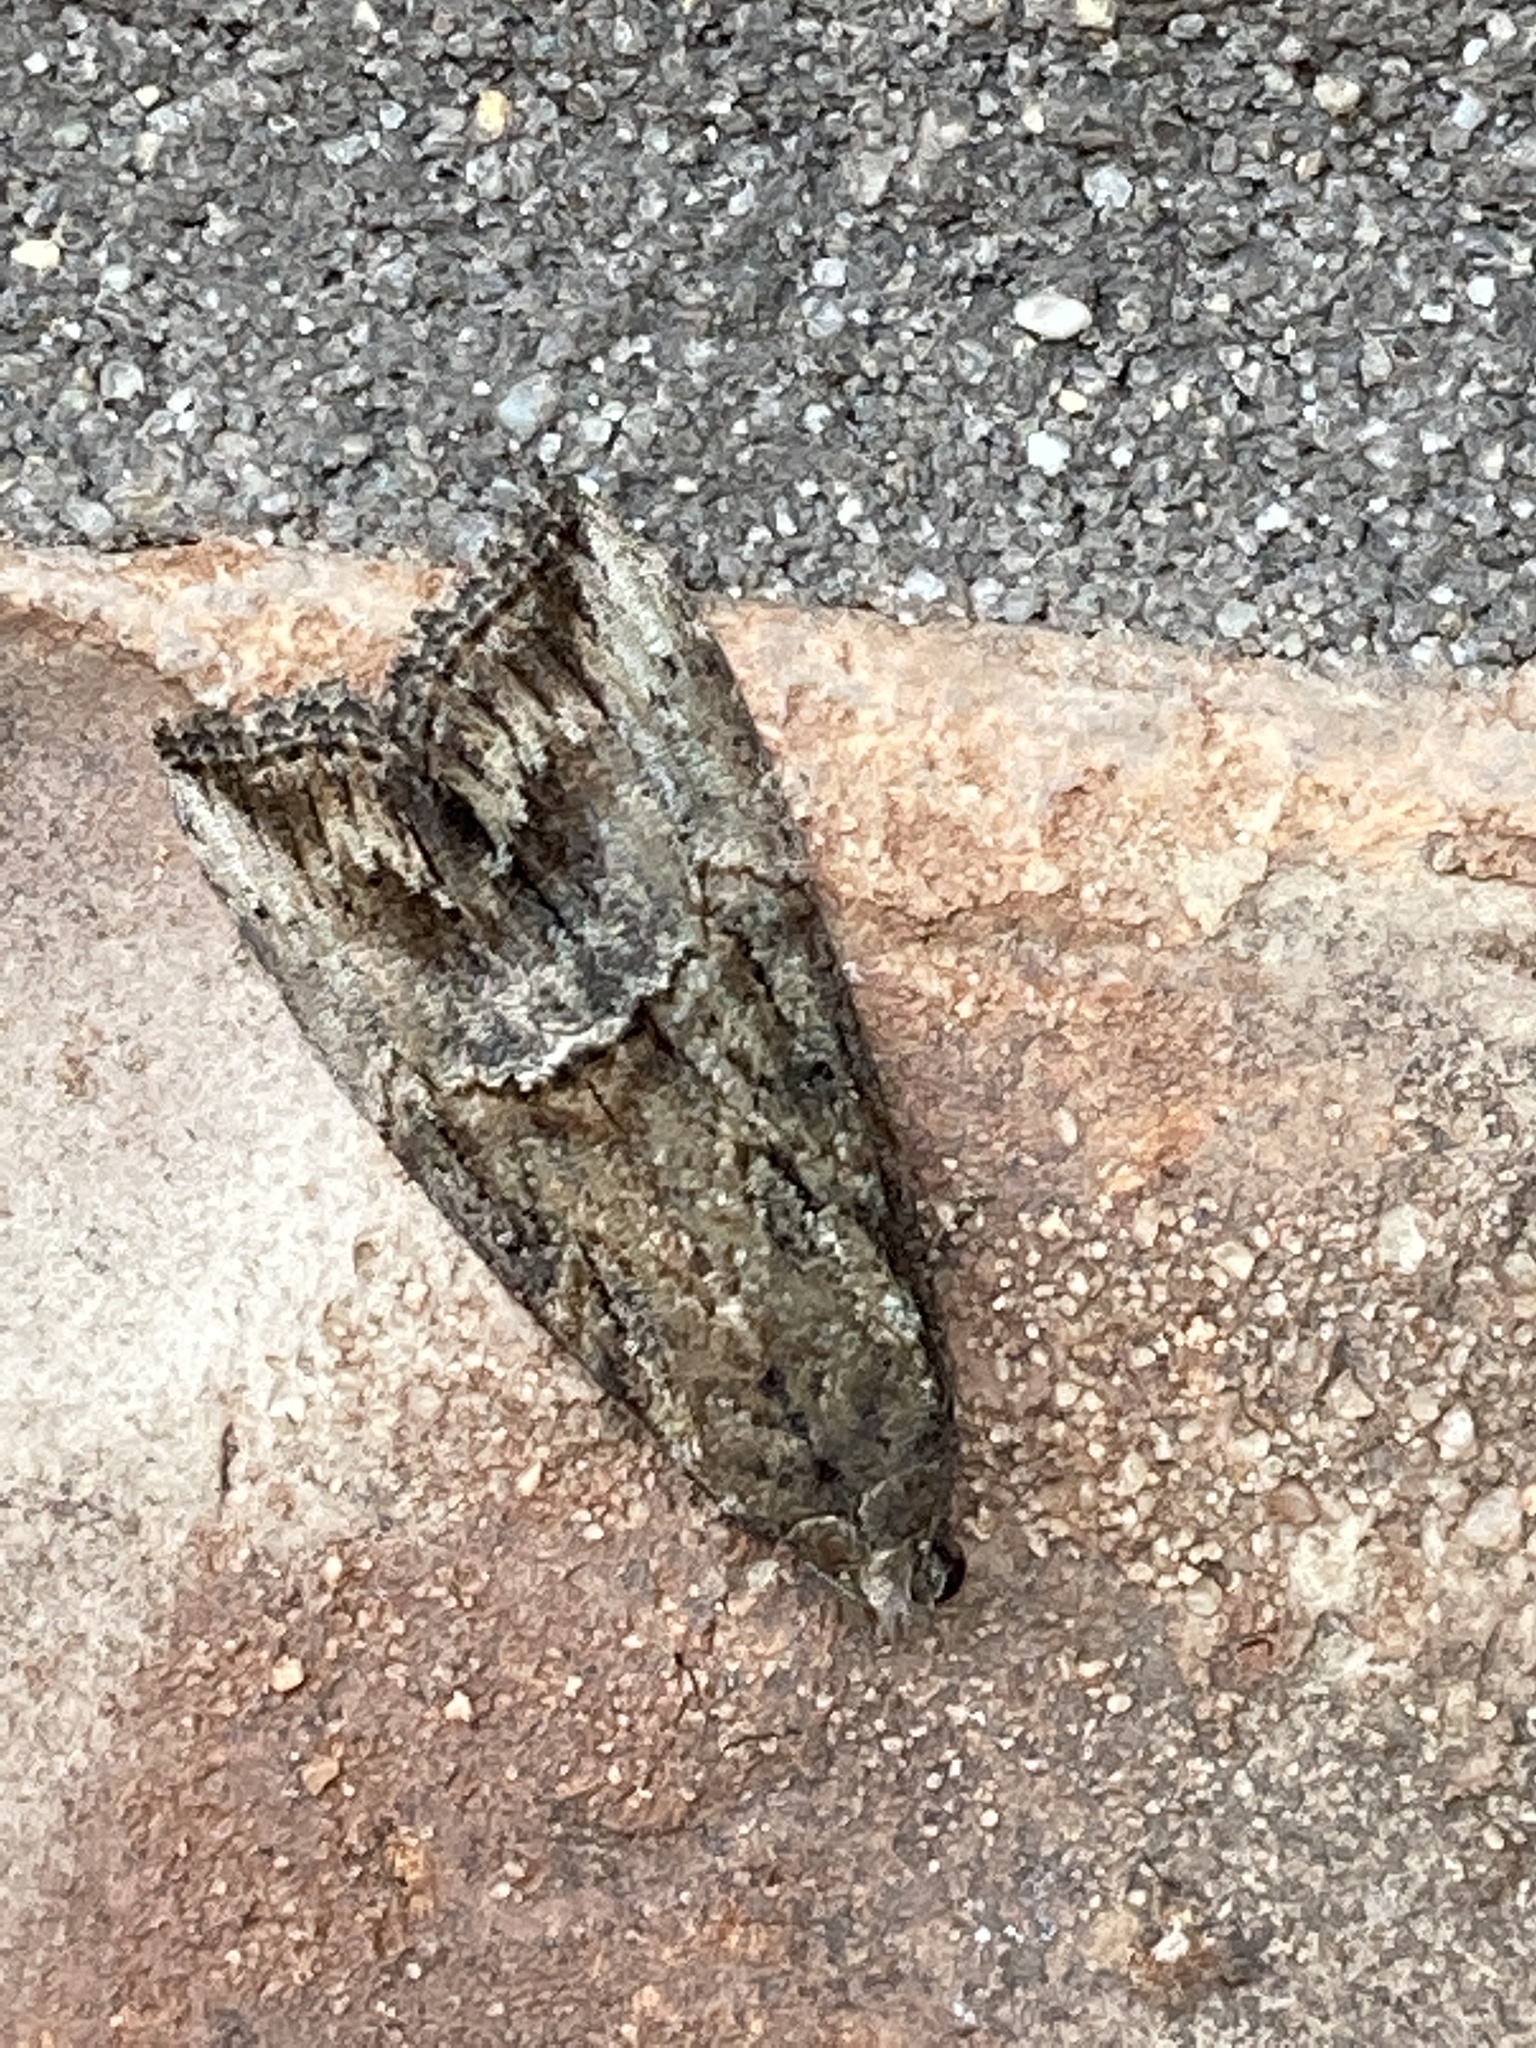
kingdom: Animalia
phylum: Arthropoda
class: Insecta
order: Lepidoptera
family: Erebidae
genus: Hypena
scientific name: Hypena scabra
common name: Green cloverworm
